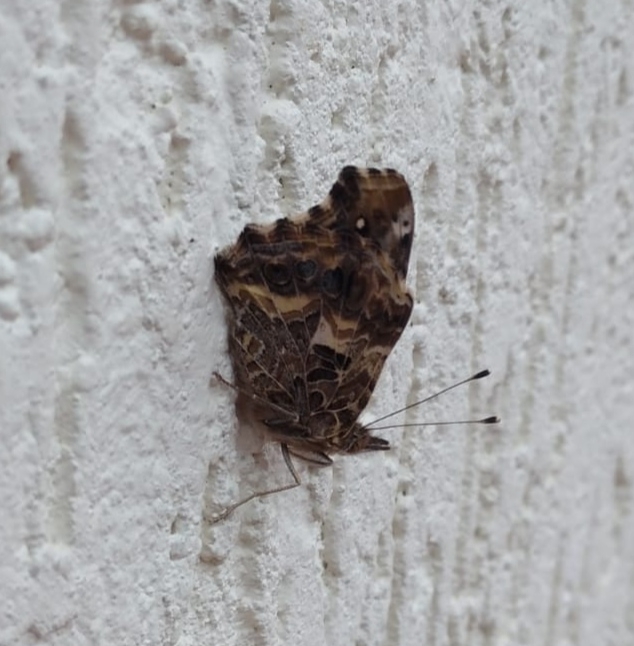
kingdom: Animalia
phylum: Arthropoda
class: Insecta
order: Lepidoptera
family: Nymphalidae
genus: Vanessa
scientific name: Vanessa carye
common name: Subtropical lady
